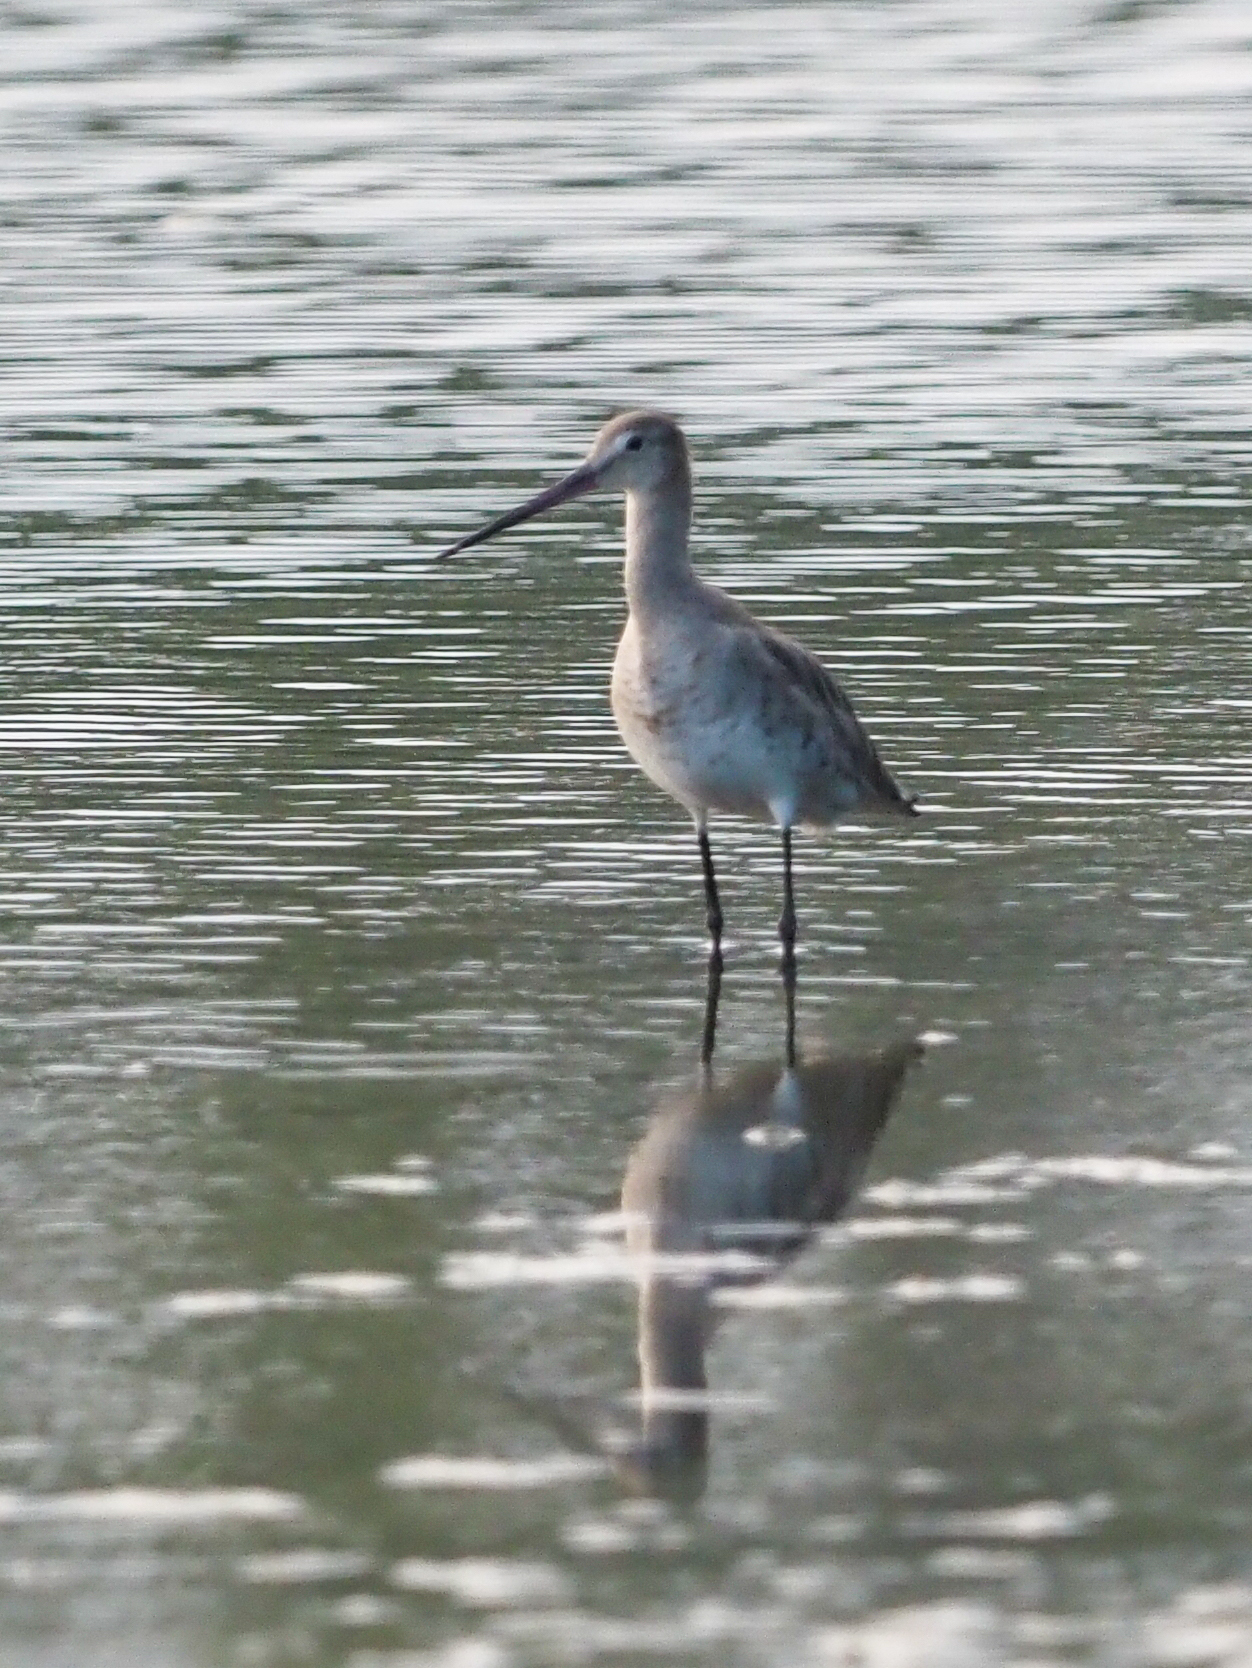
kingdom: Animalia
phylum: Chordata
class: Aves
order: Charadriiformes
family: Scolopacidae
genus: Limosa
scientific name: Limosa limosa
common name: Black-tailed godwit
